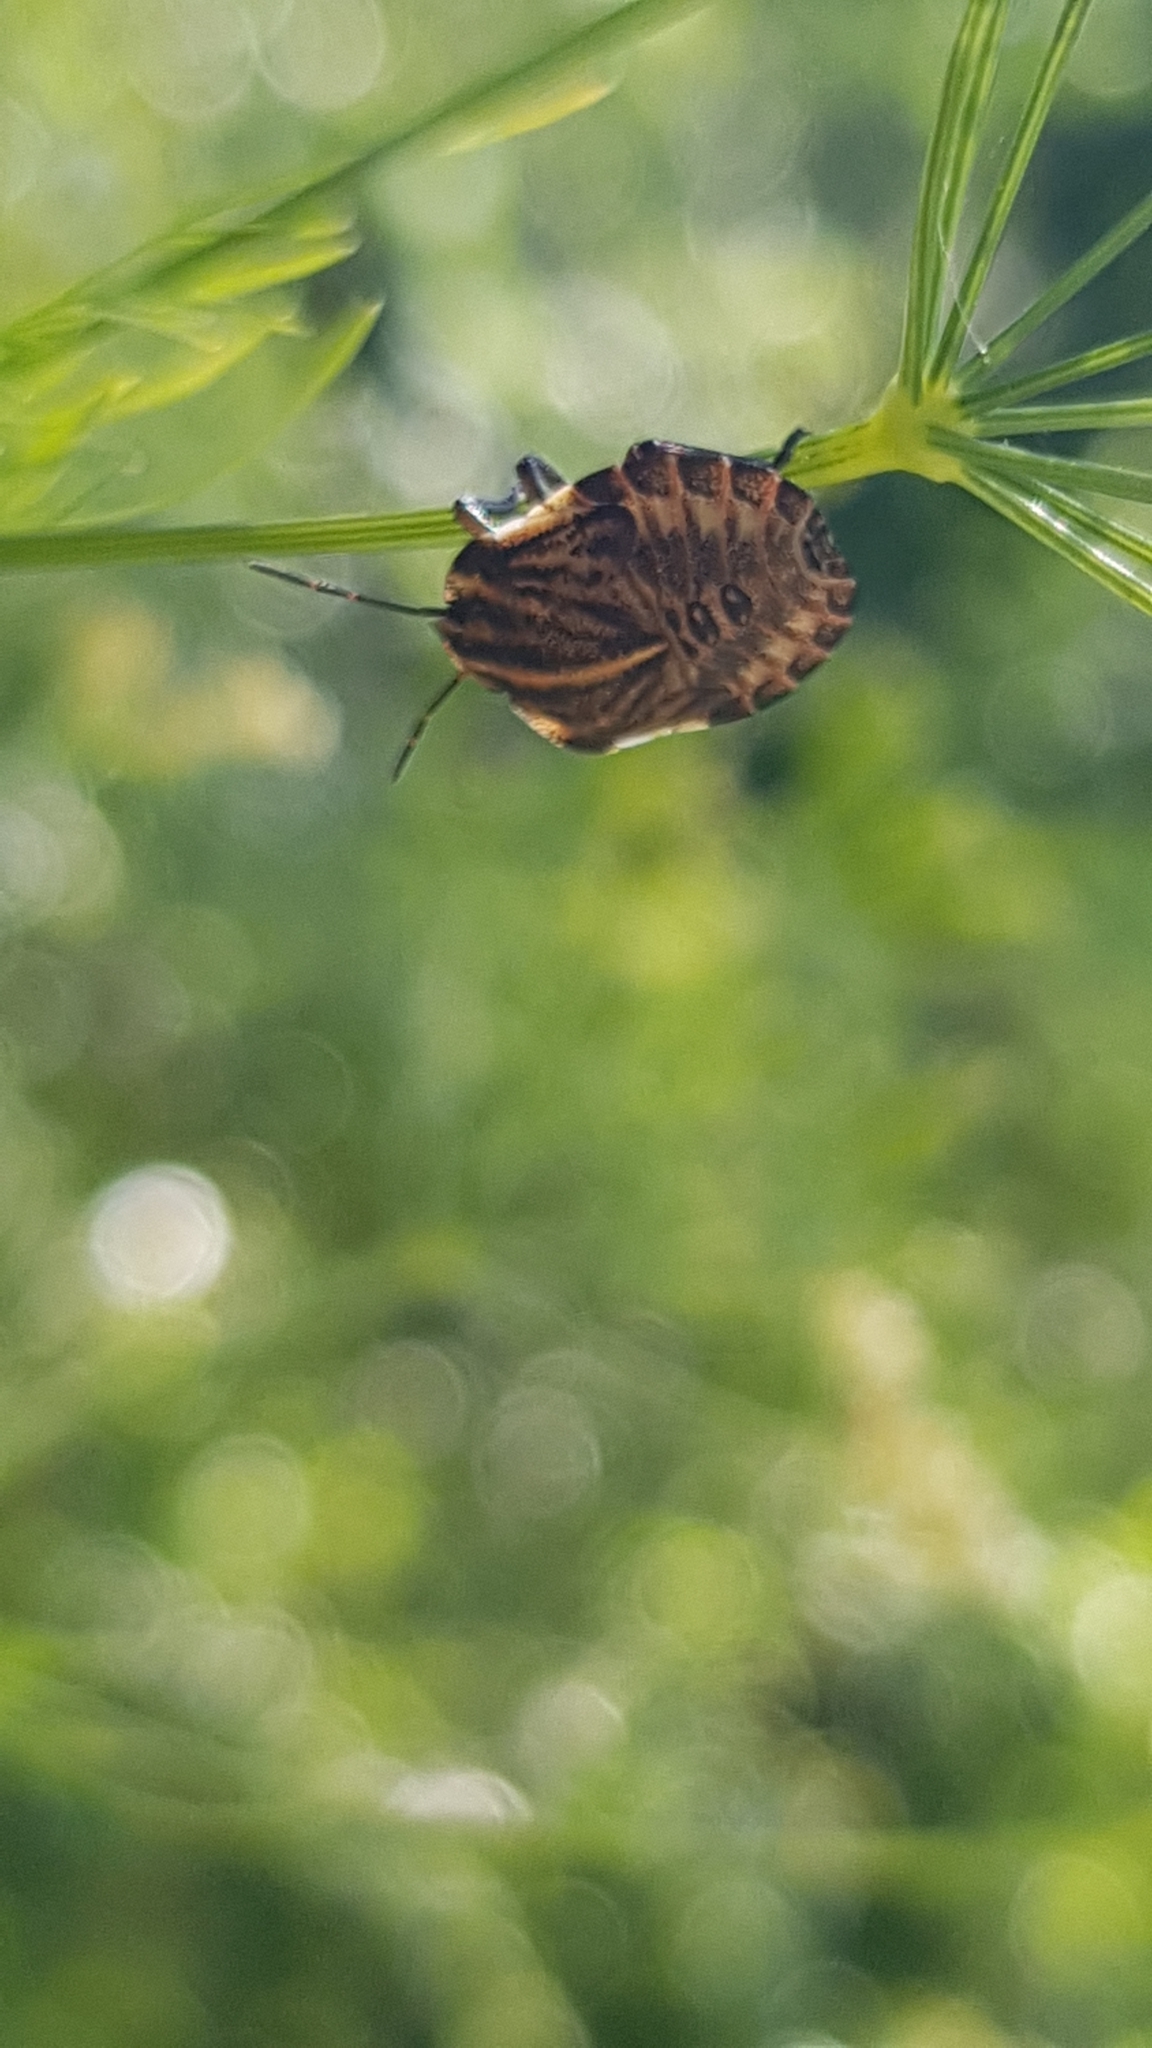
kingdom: Animalia
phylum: Arthropoda
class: Insecta
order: Hemiptera
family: Pentatomidae
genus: Graphosoma
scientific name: Graphosoma italicum
